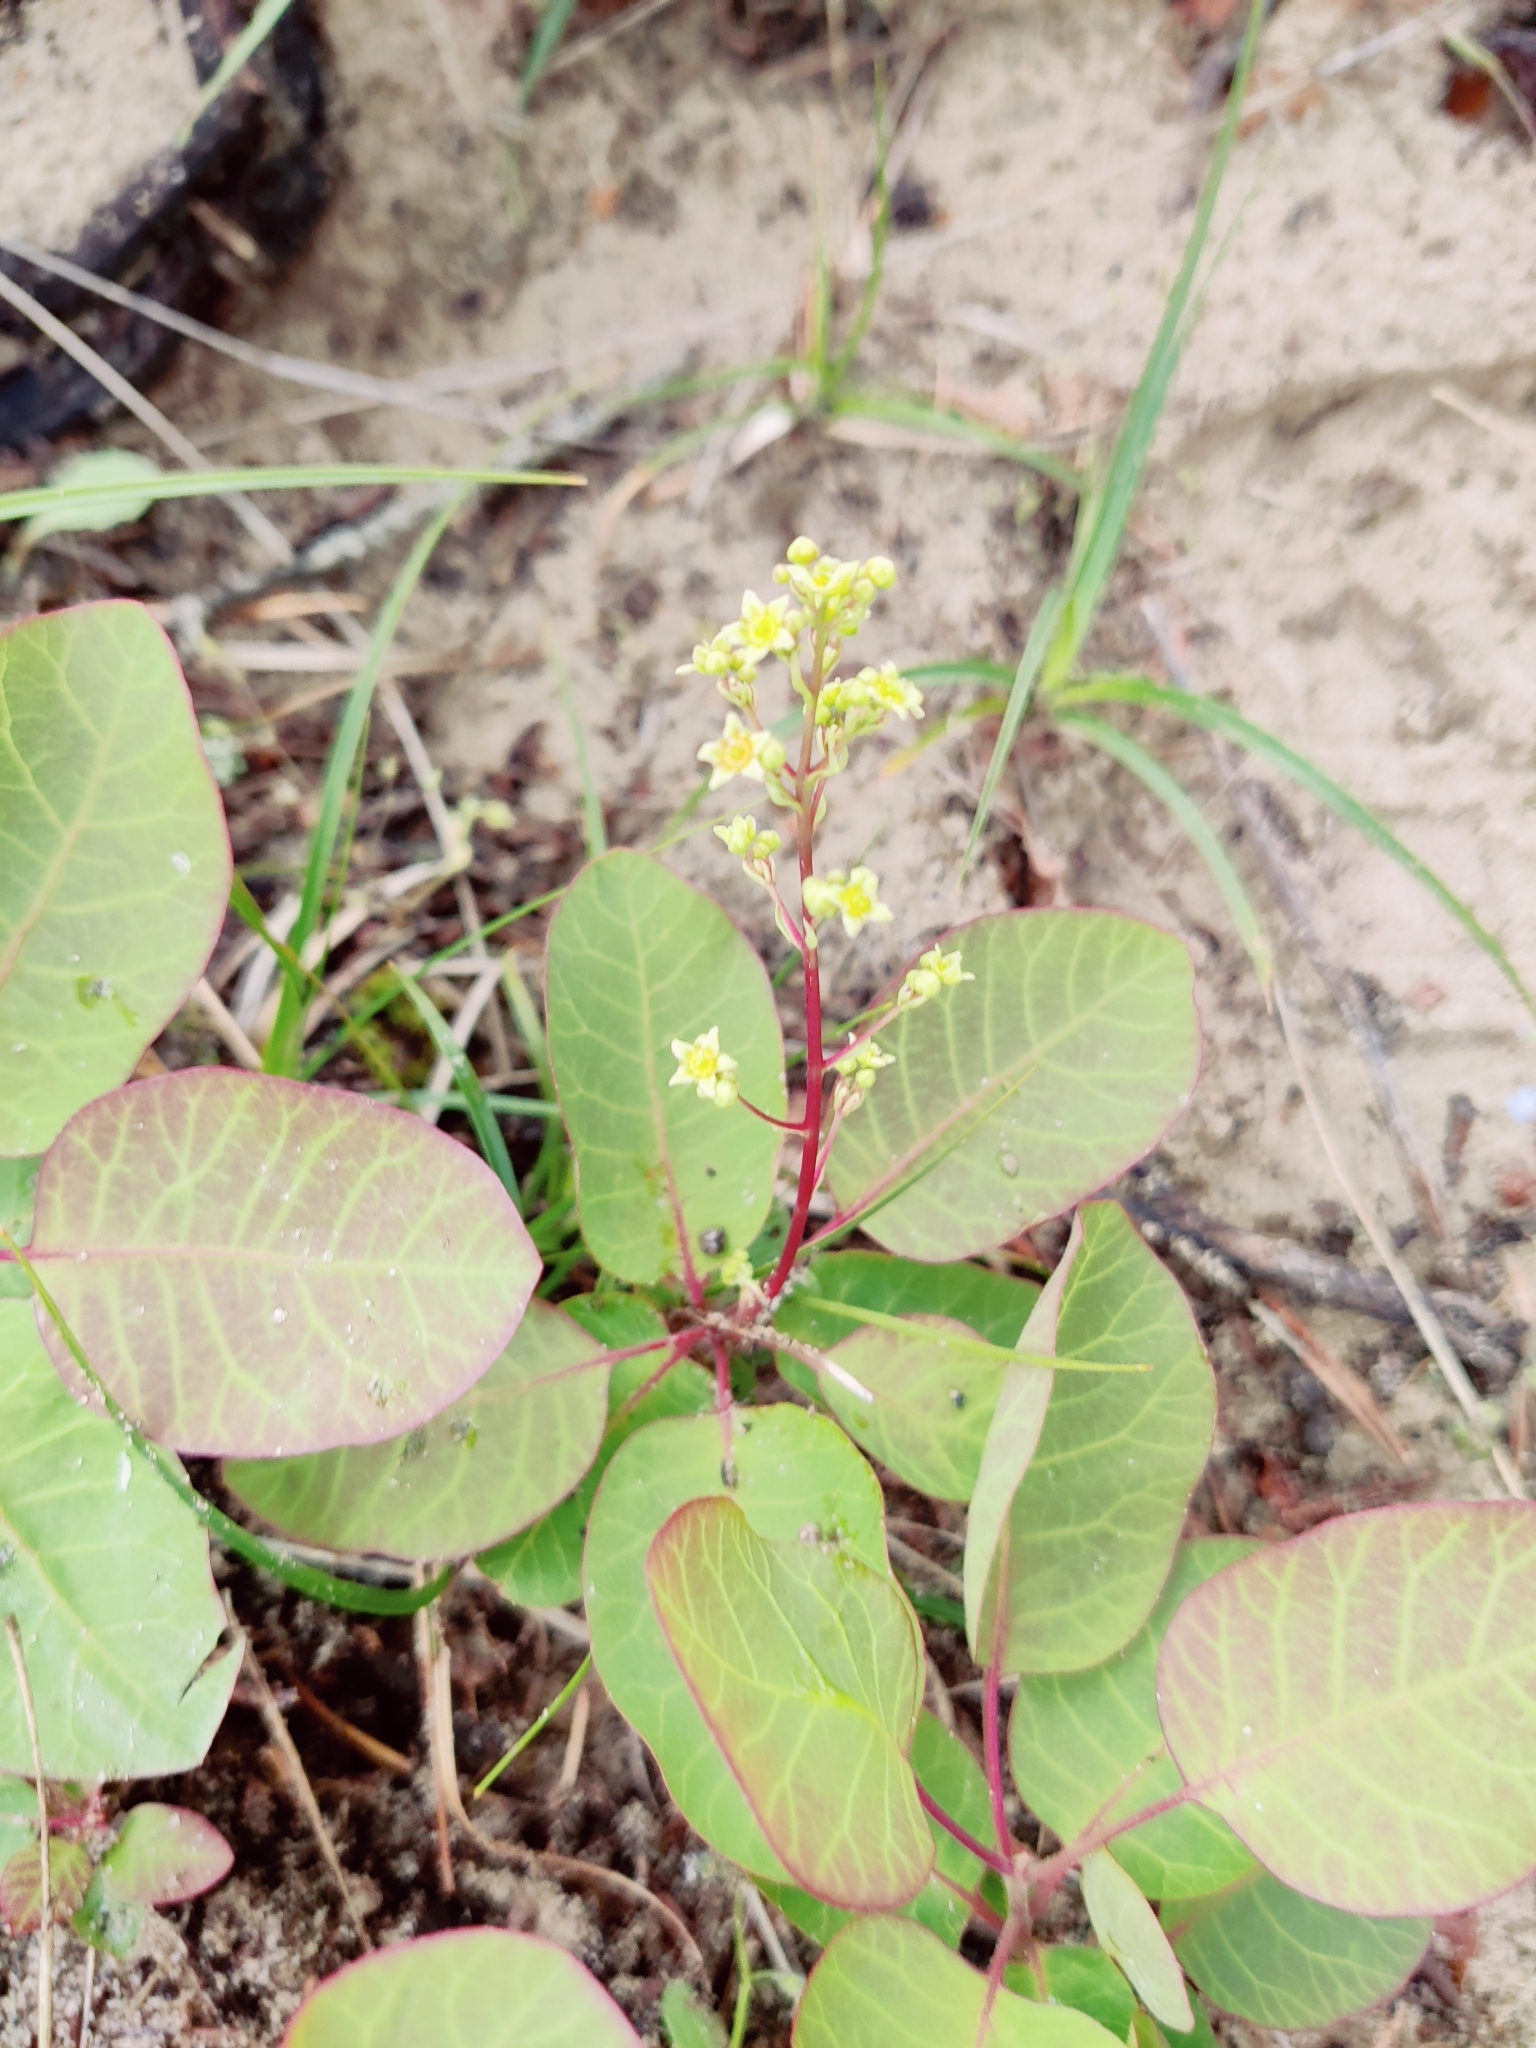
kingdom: Plantae
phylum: Tracheophyta
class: Magnoliopsida
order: Sapindales
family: Anacardiaceae
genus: Cotinus
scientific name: Cotinus coggygria
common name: Smoke-tree
